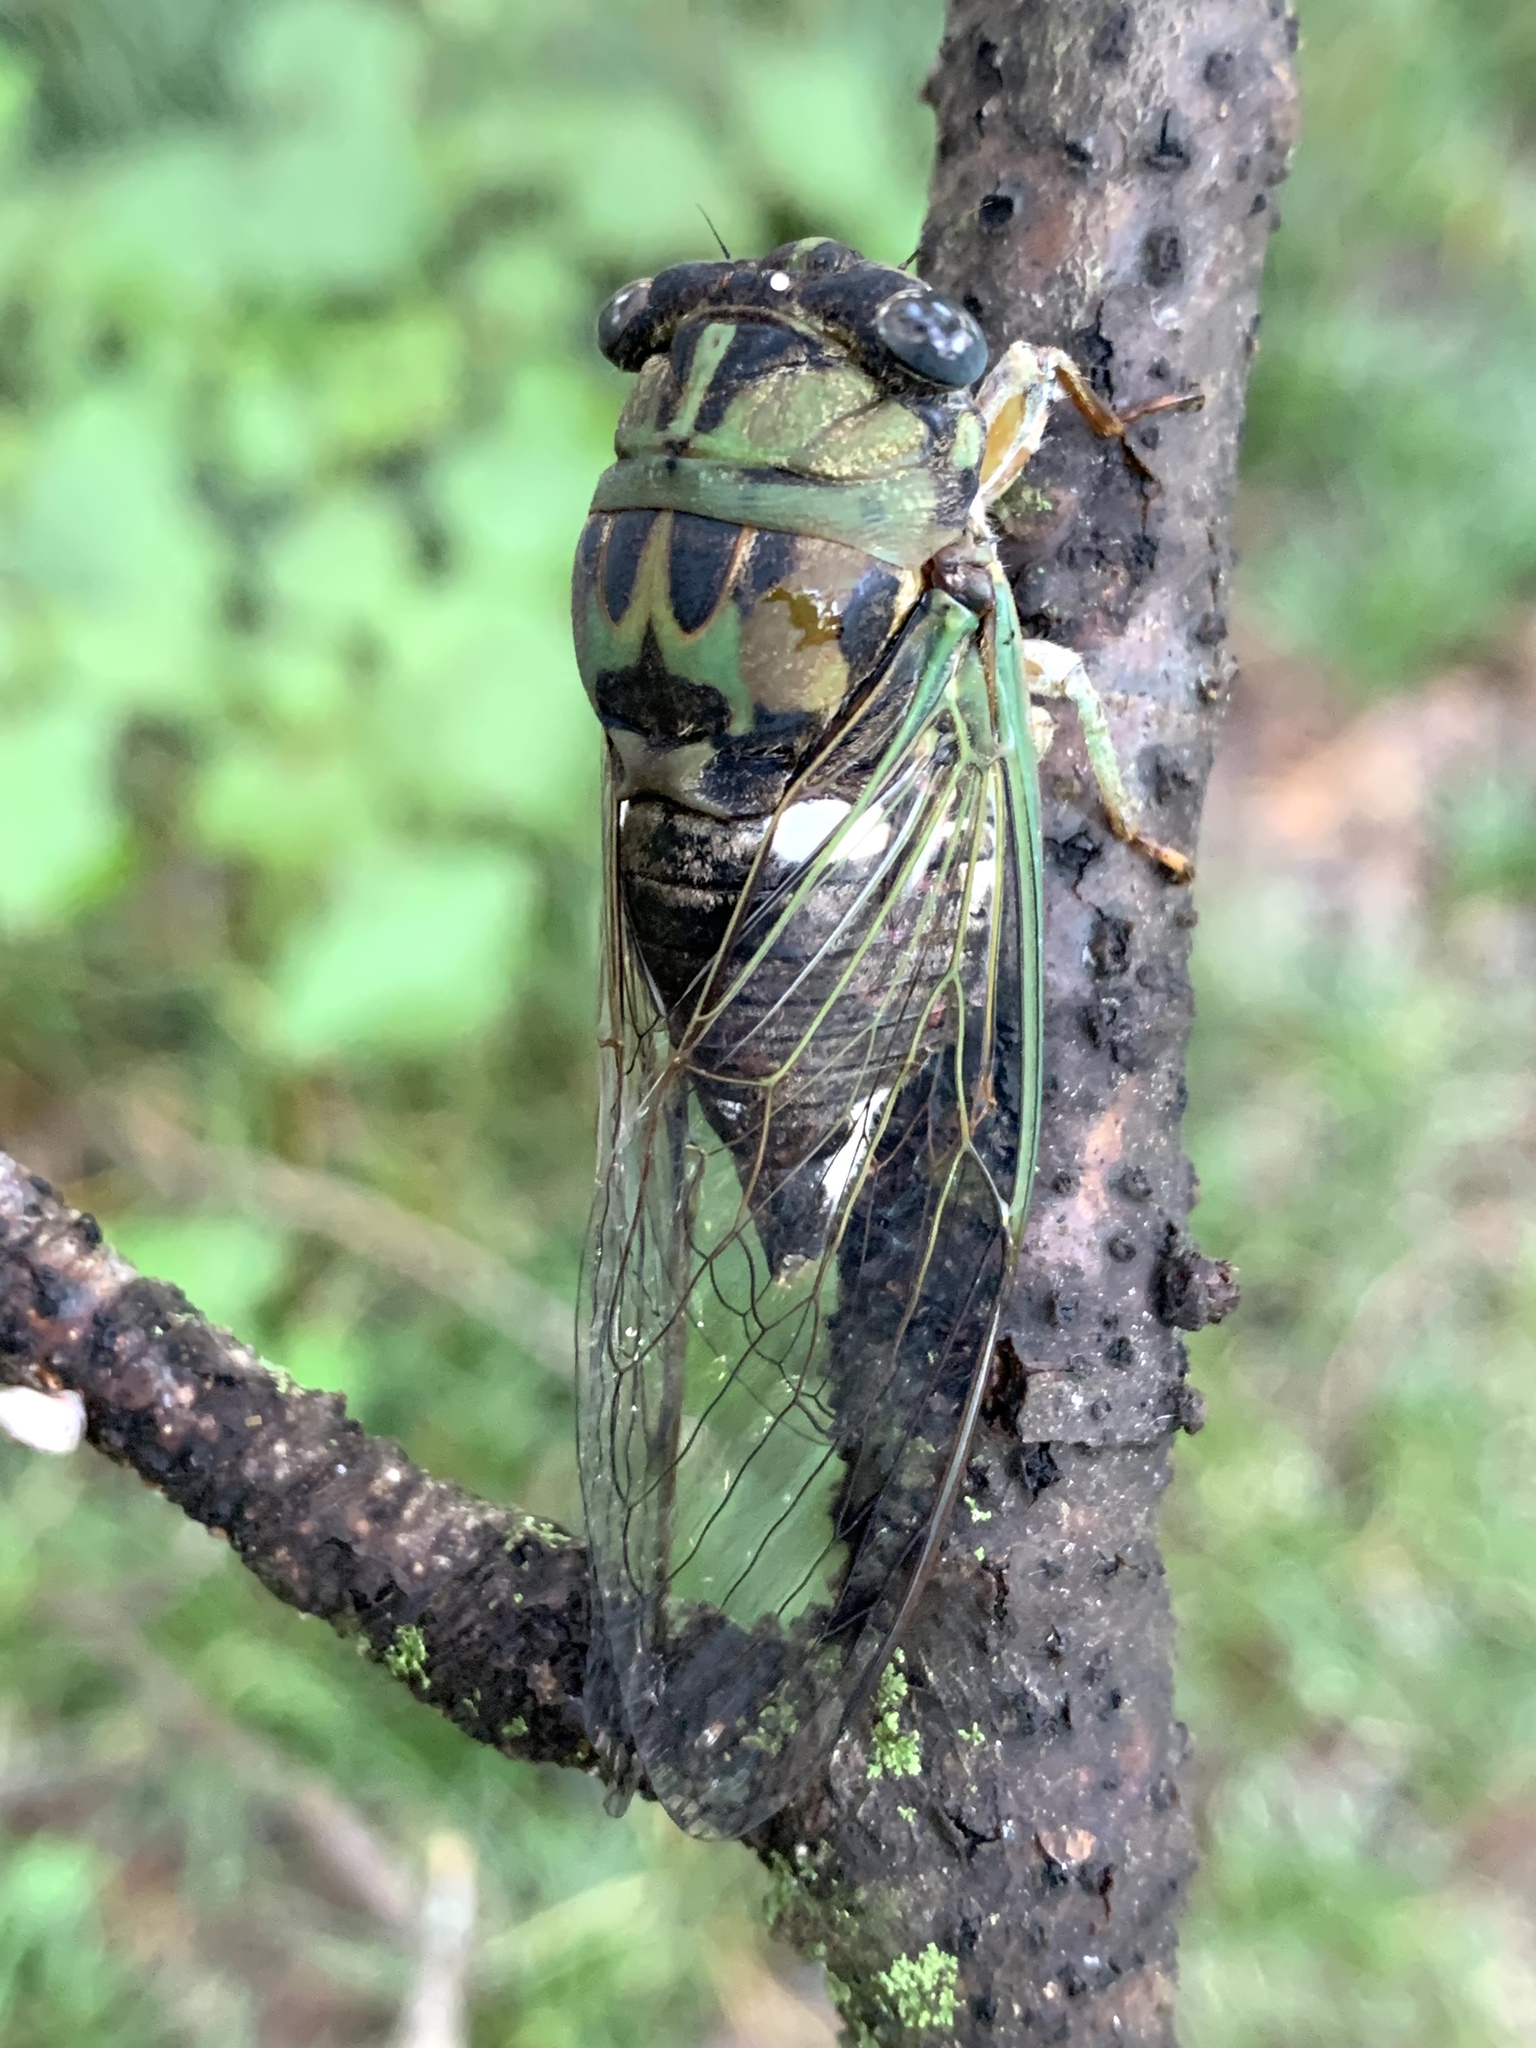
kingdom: Animalia
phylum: Arthropoda
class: Insecta
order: Hemiptera
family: Cicadidae
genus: Neotibicen
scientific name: Neotibicen pruinosus
